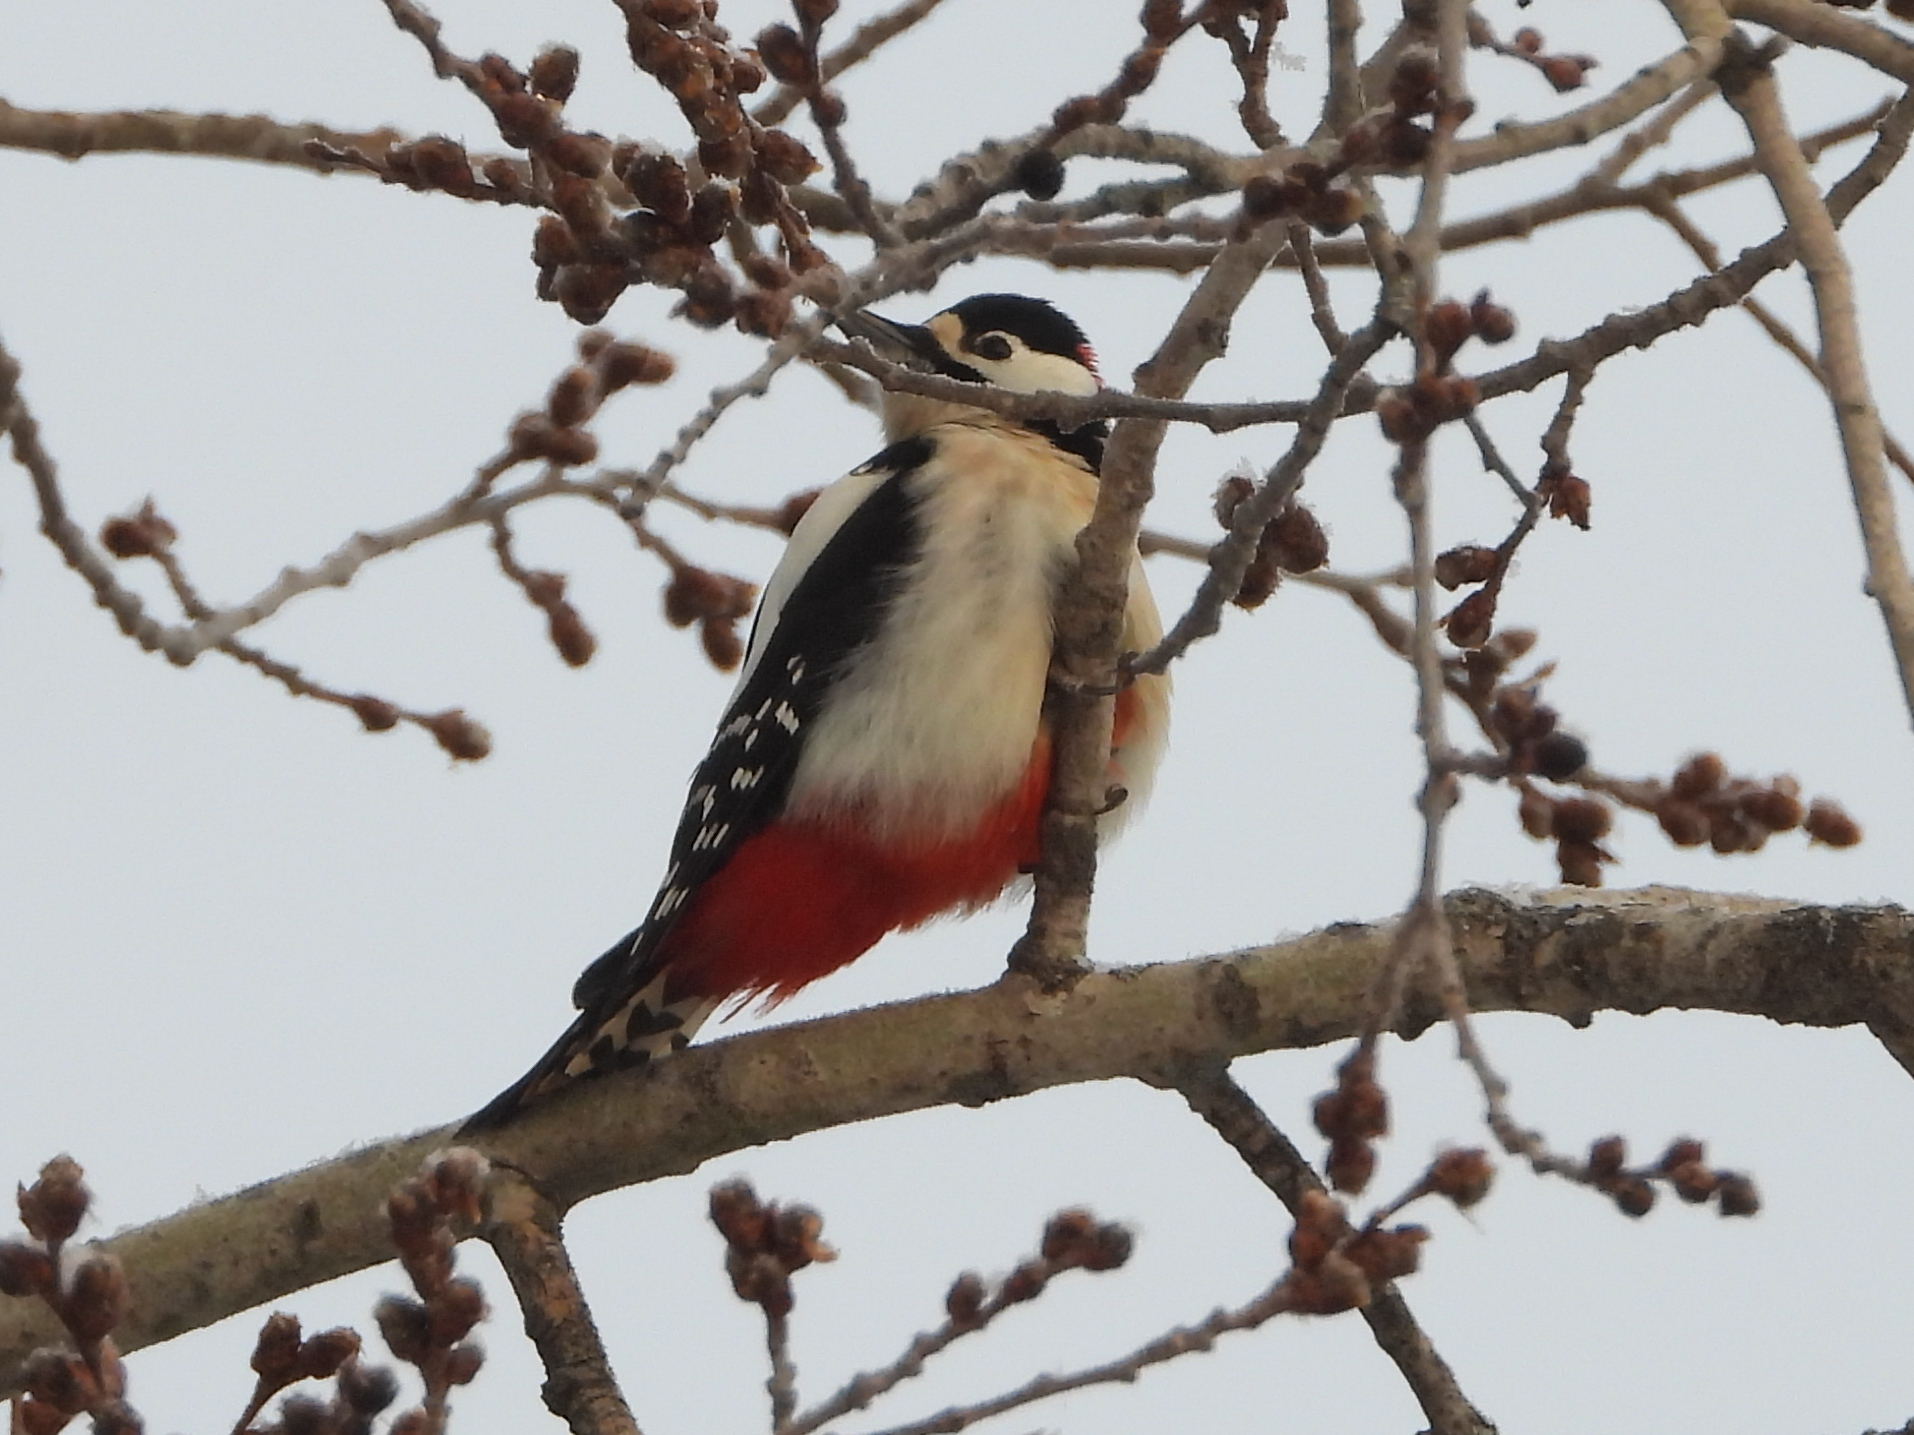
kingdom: Animalia
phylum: Chordata
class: Aves
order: Piciformes
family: Picidae
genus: Dendrocopos
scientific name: Dendrocopos major
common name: Great spotted woodpecker
